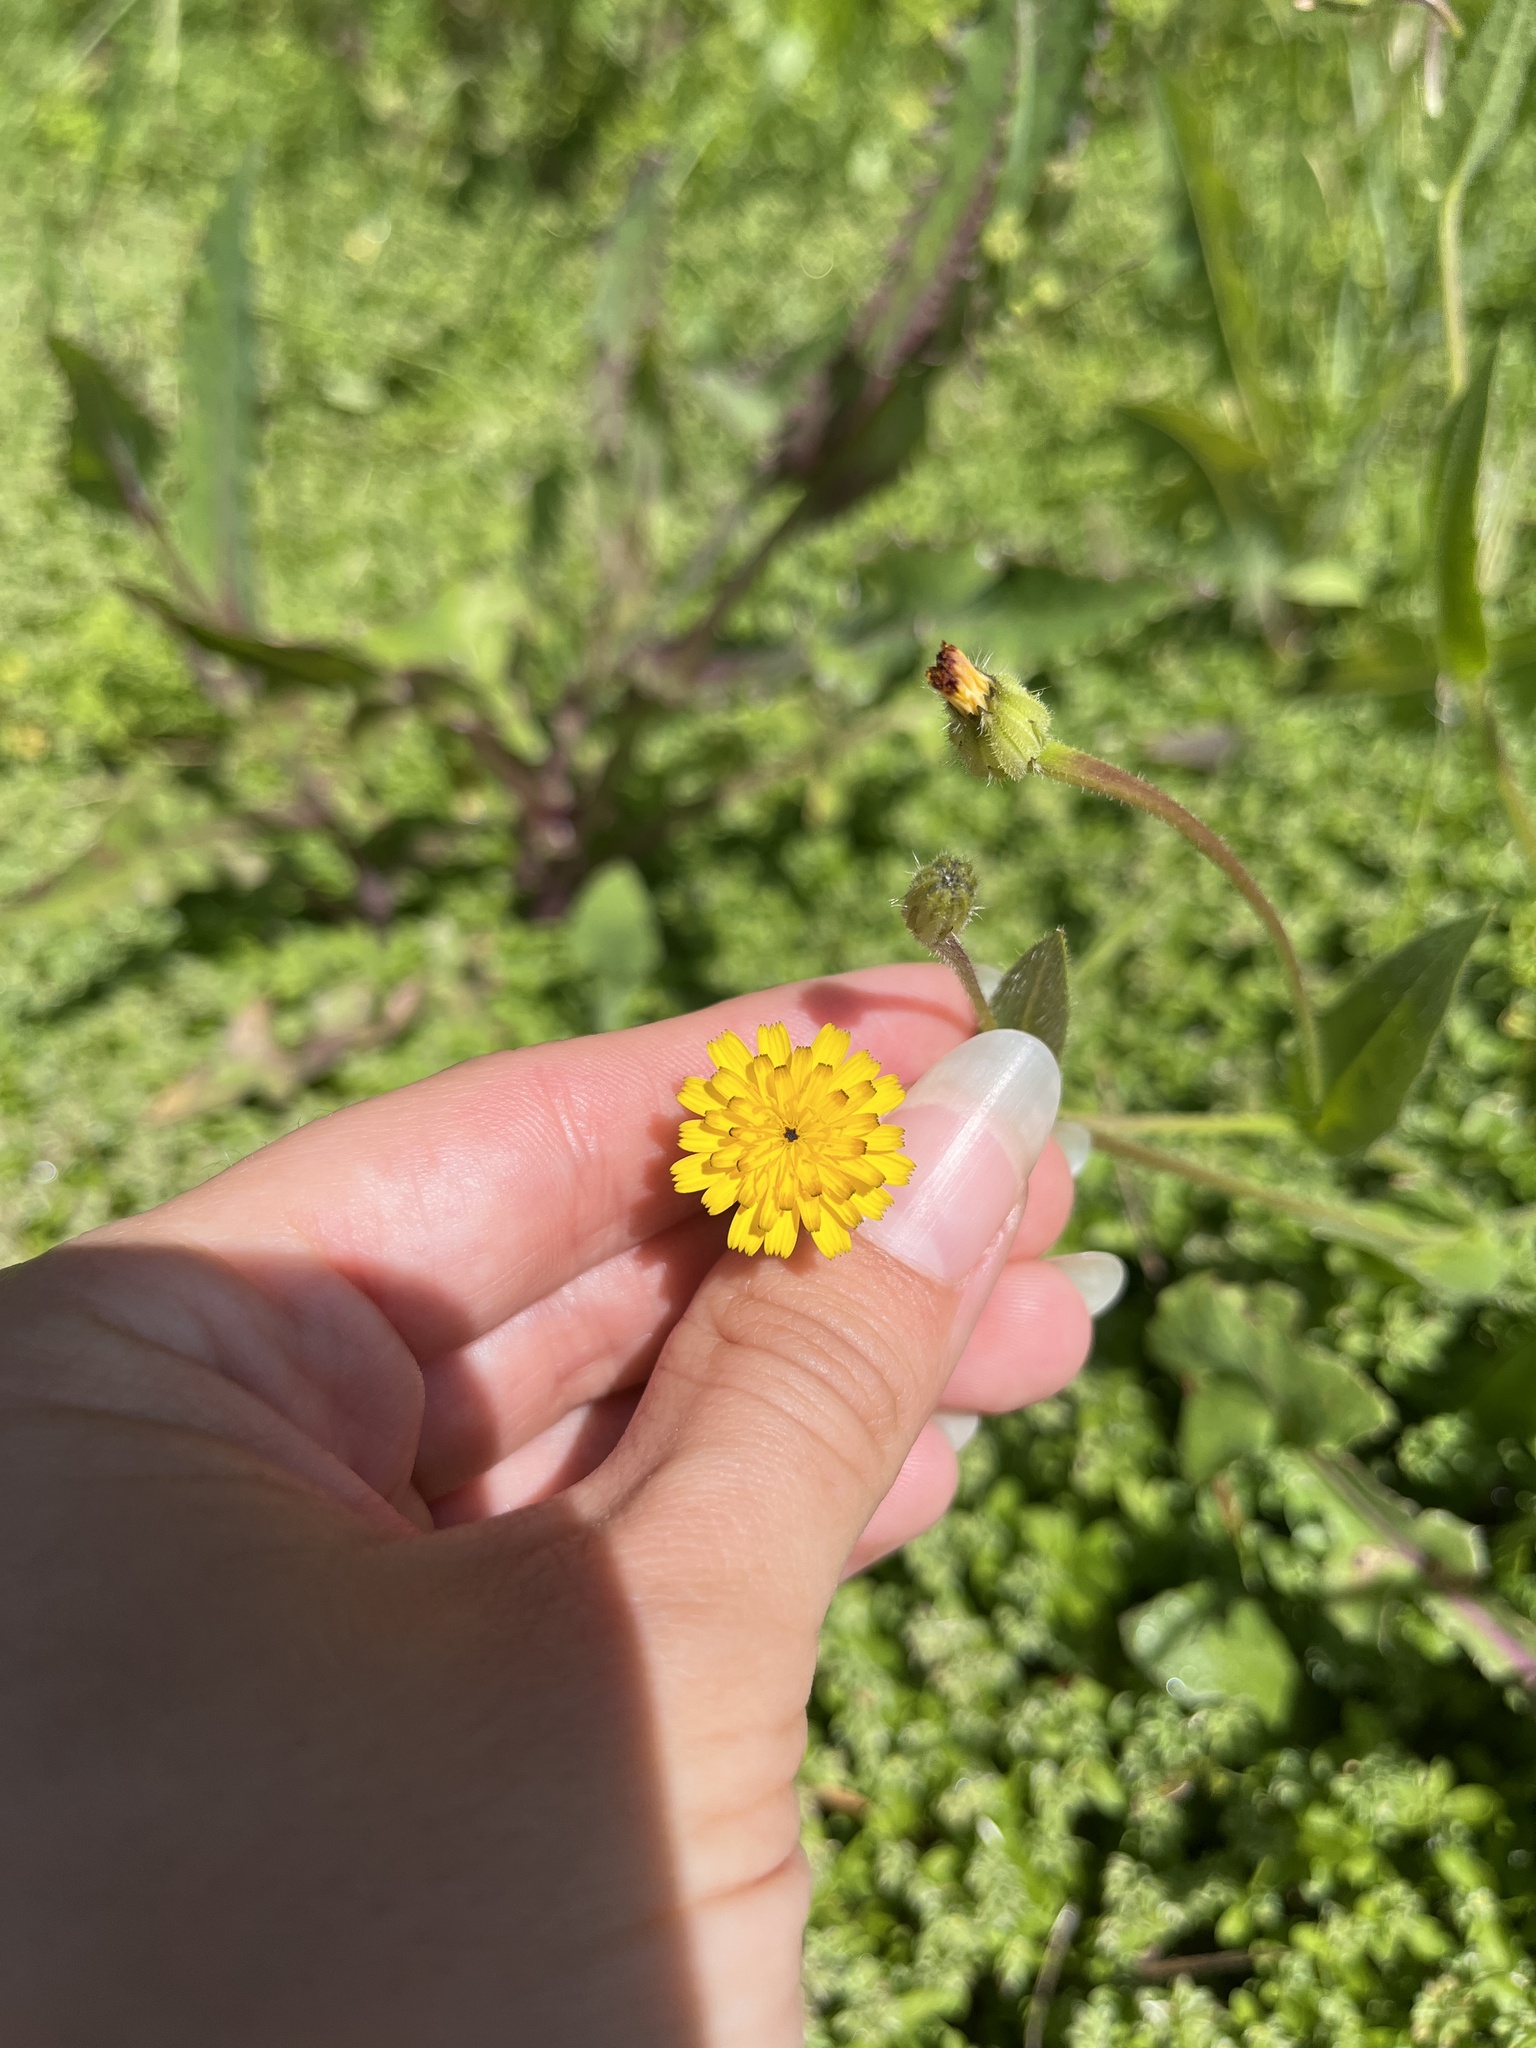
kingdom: Plantae
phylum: Tracheophyta
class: Magnoliopsida
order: Asterales
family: Asteraceae
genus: Hedypnois
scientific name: Hedypnois rhagadioloides
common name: Cretan weed
